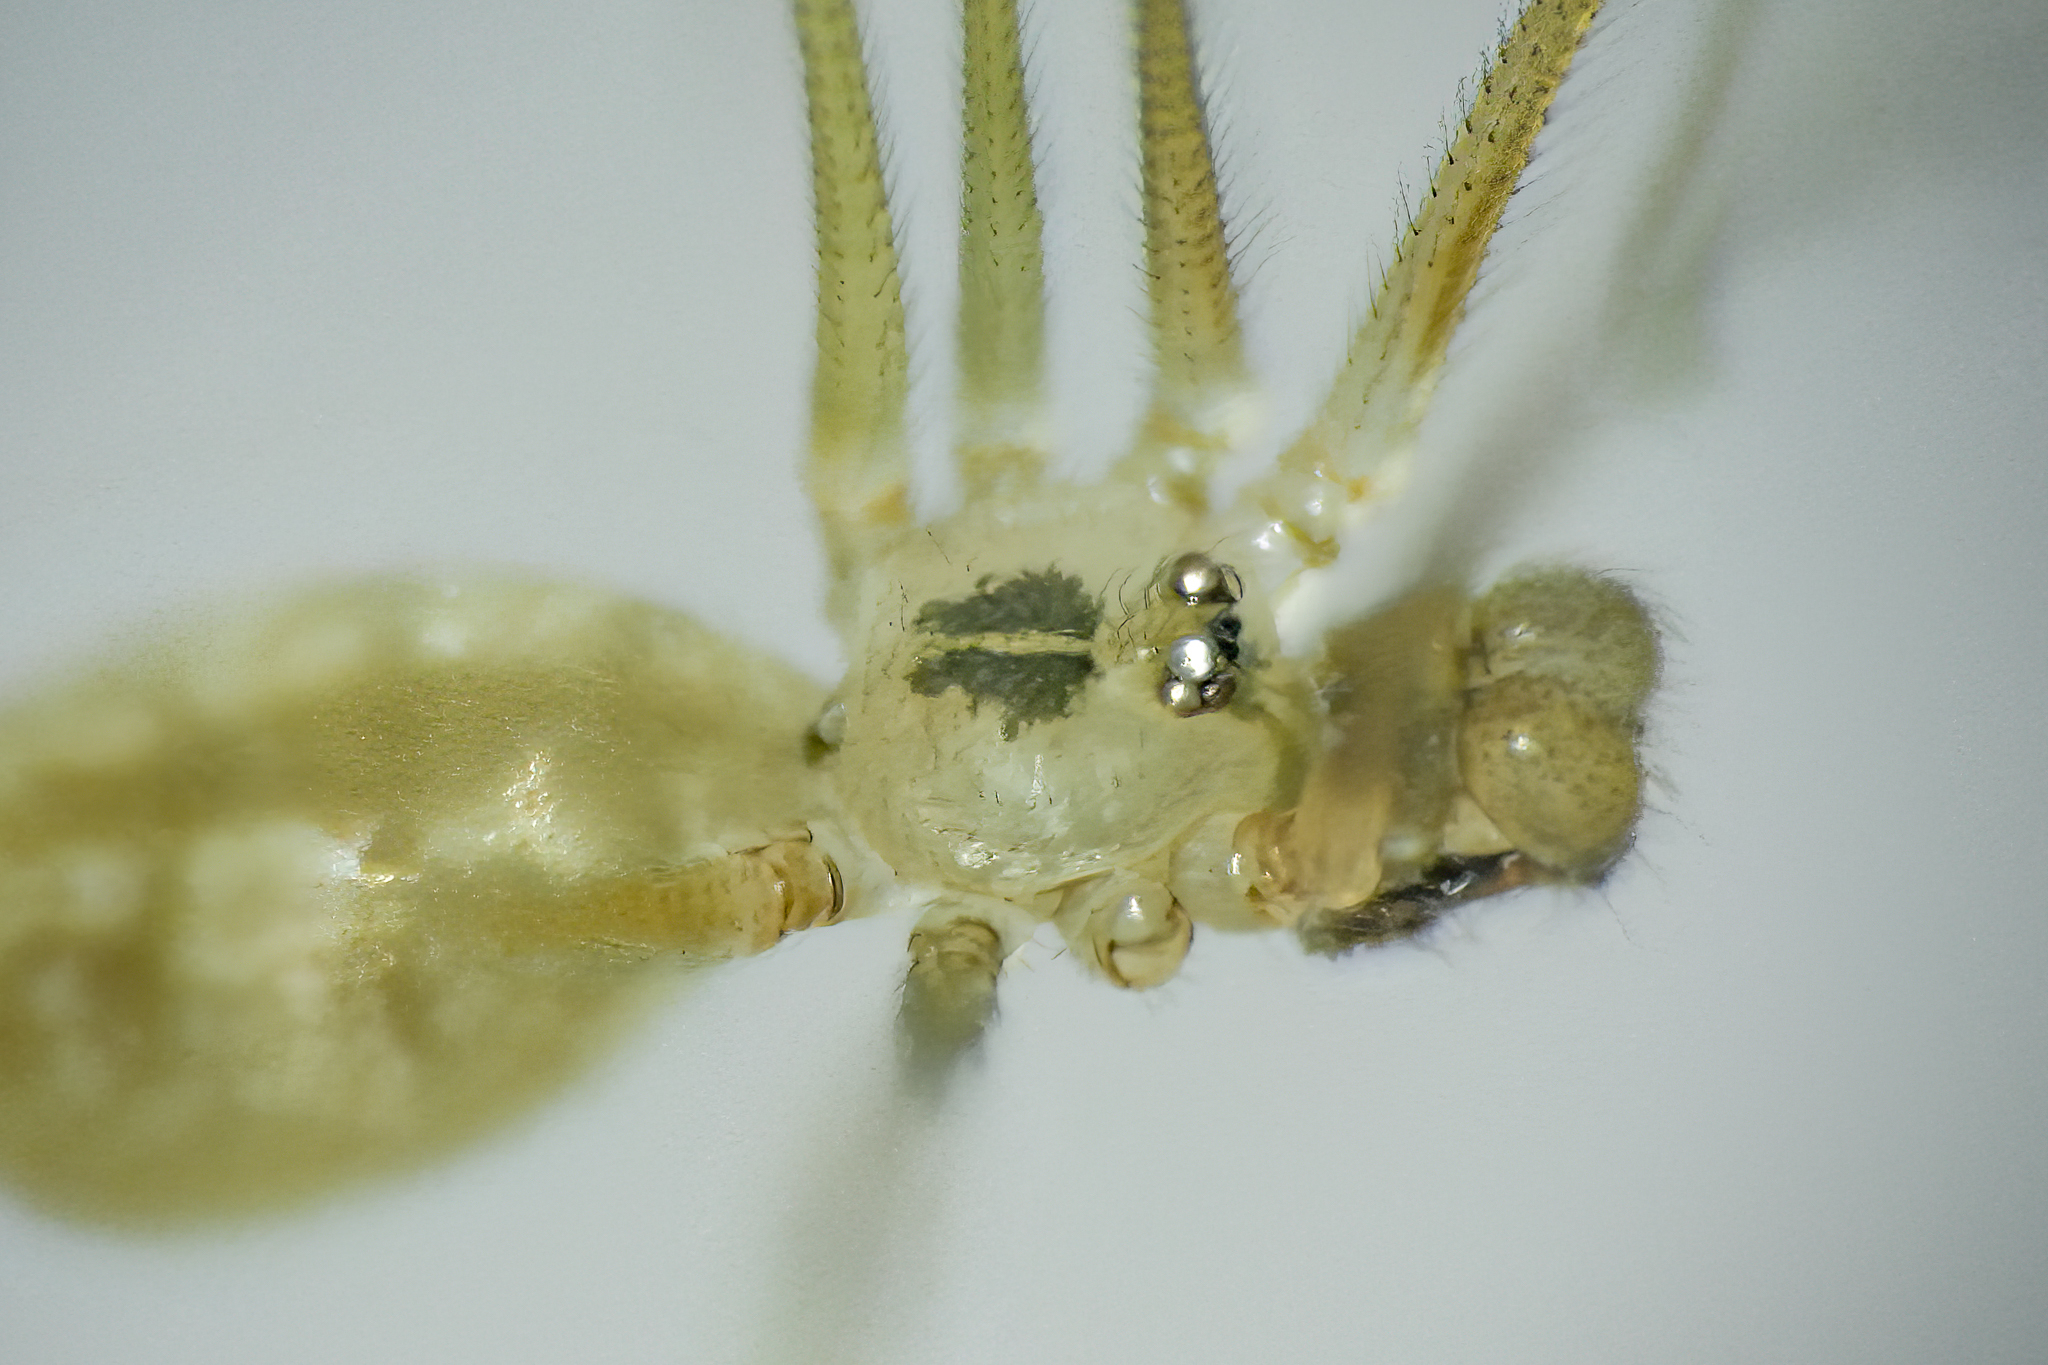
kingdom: Animalia
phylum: Arthropoda
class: Arachnida
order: Araneae
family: Pholcidae
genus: Pholcus
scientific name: Pholcus manueli
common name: Cellar spider
